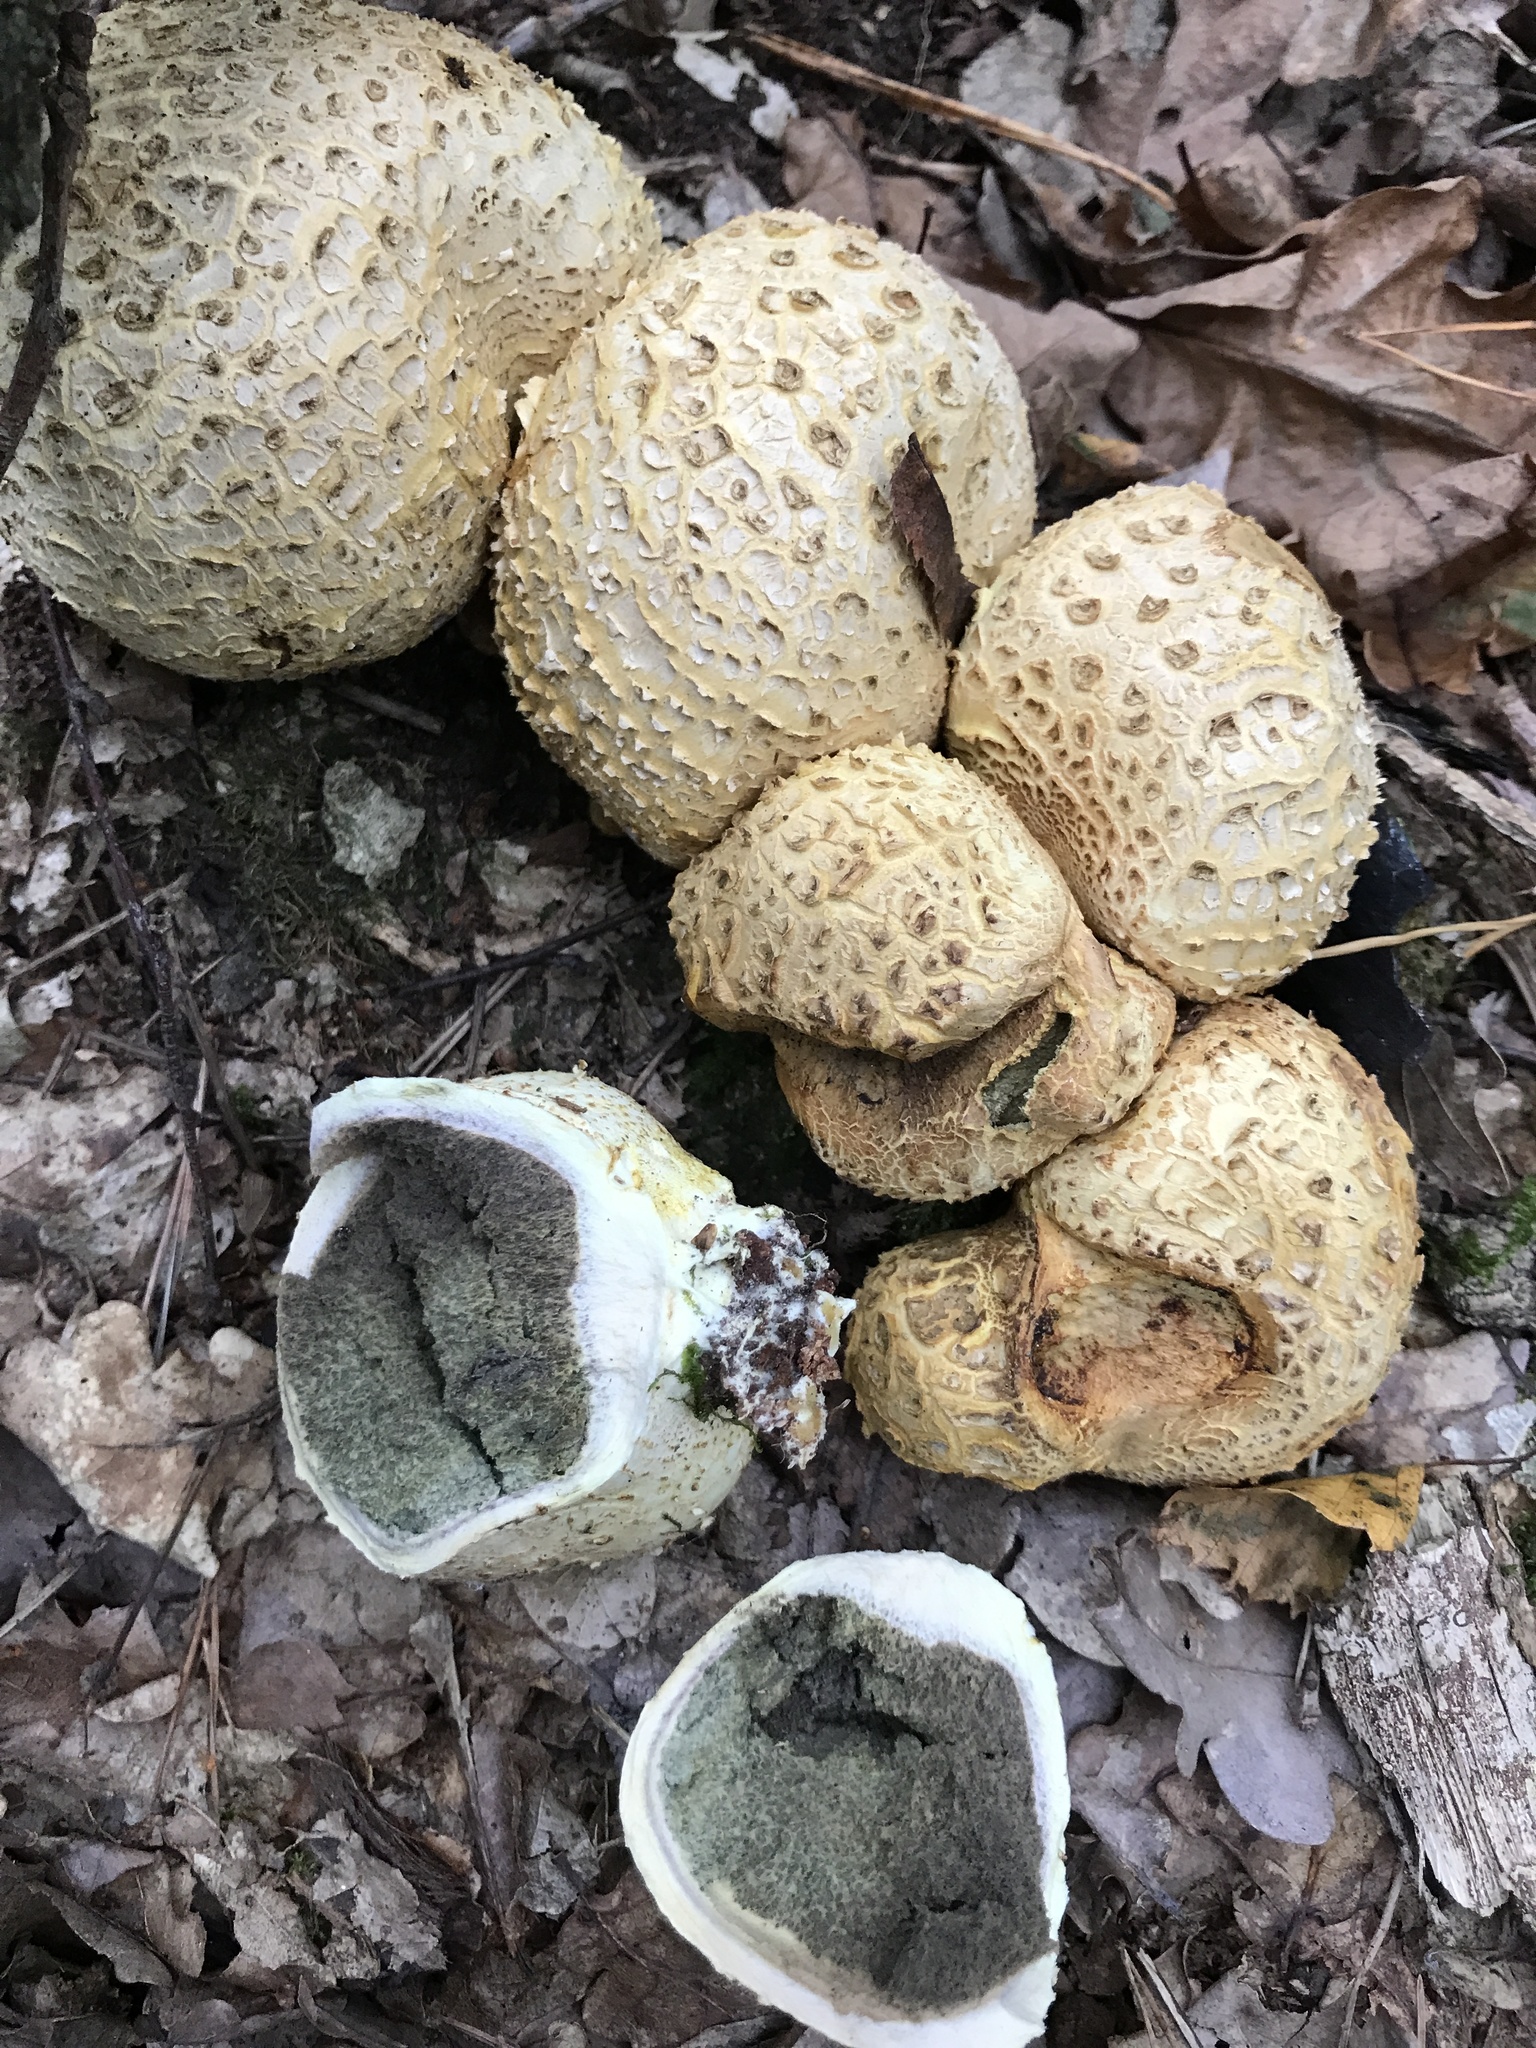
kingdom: Fungi
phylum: Basidiomycota
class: Agaricomycetes
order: Boletales
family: Sclerodermataceae
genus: Scleroderma
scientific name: Scleroderma citrinum
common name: Common earthball
